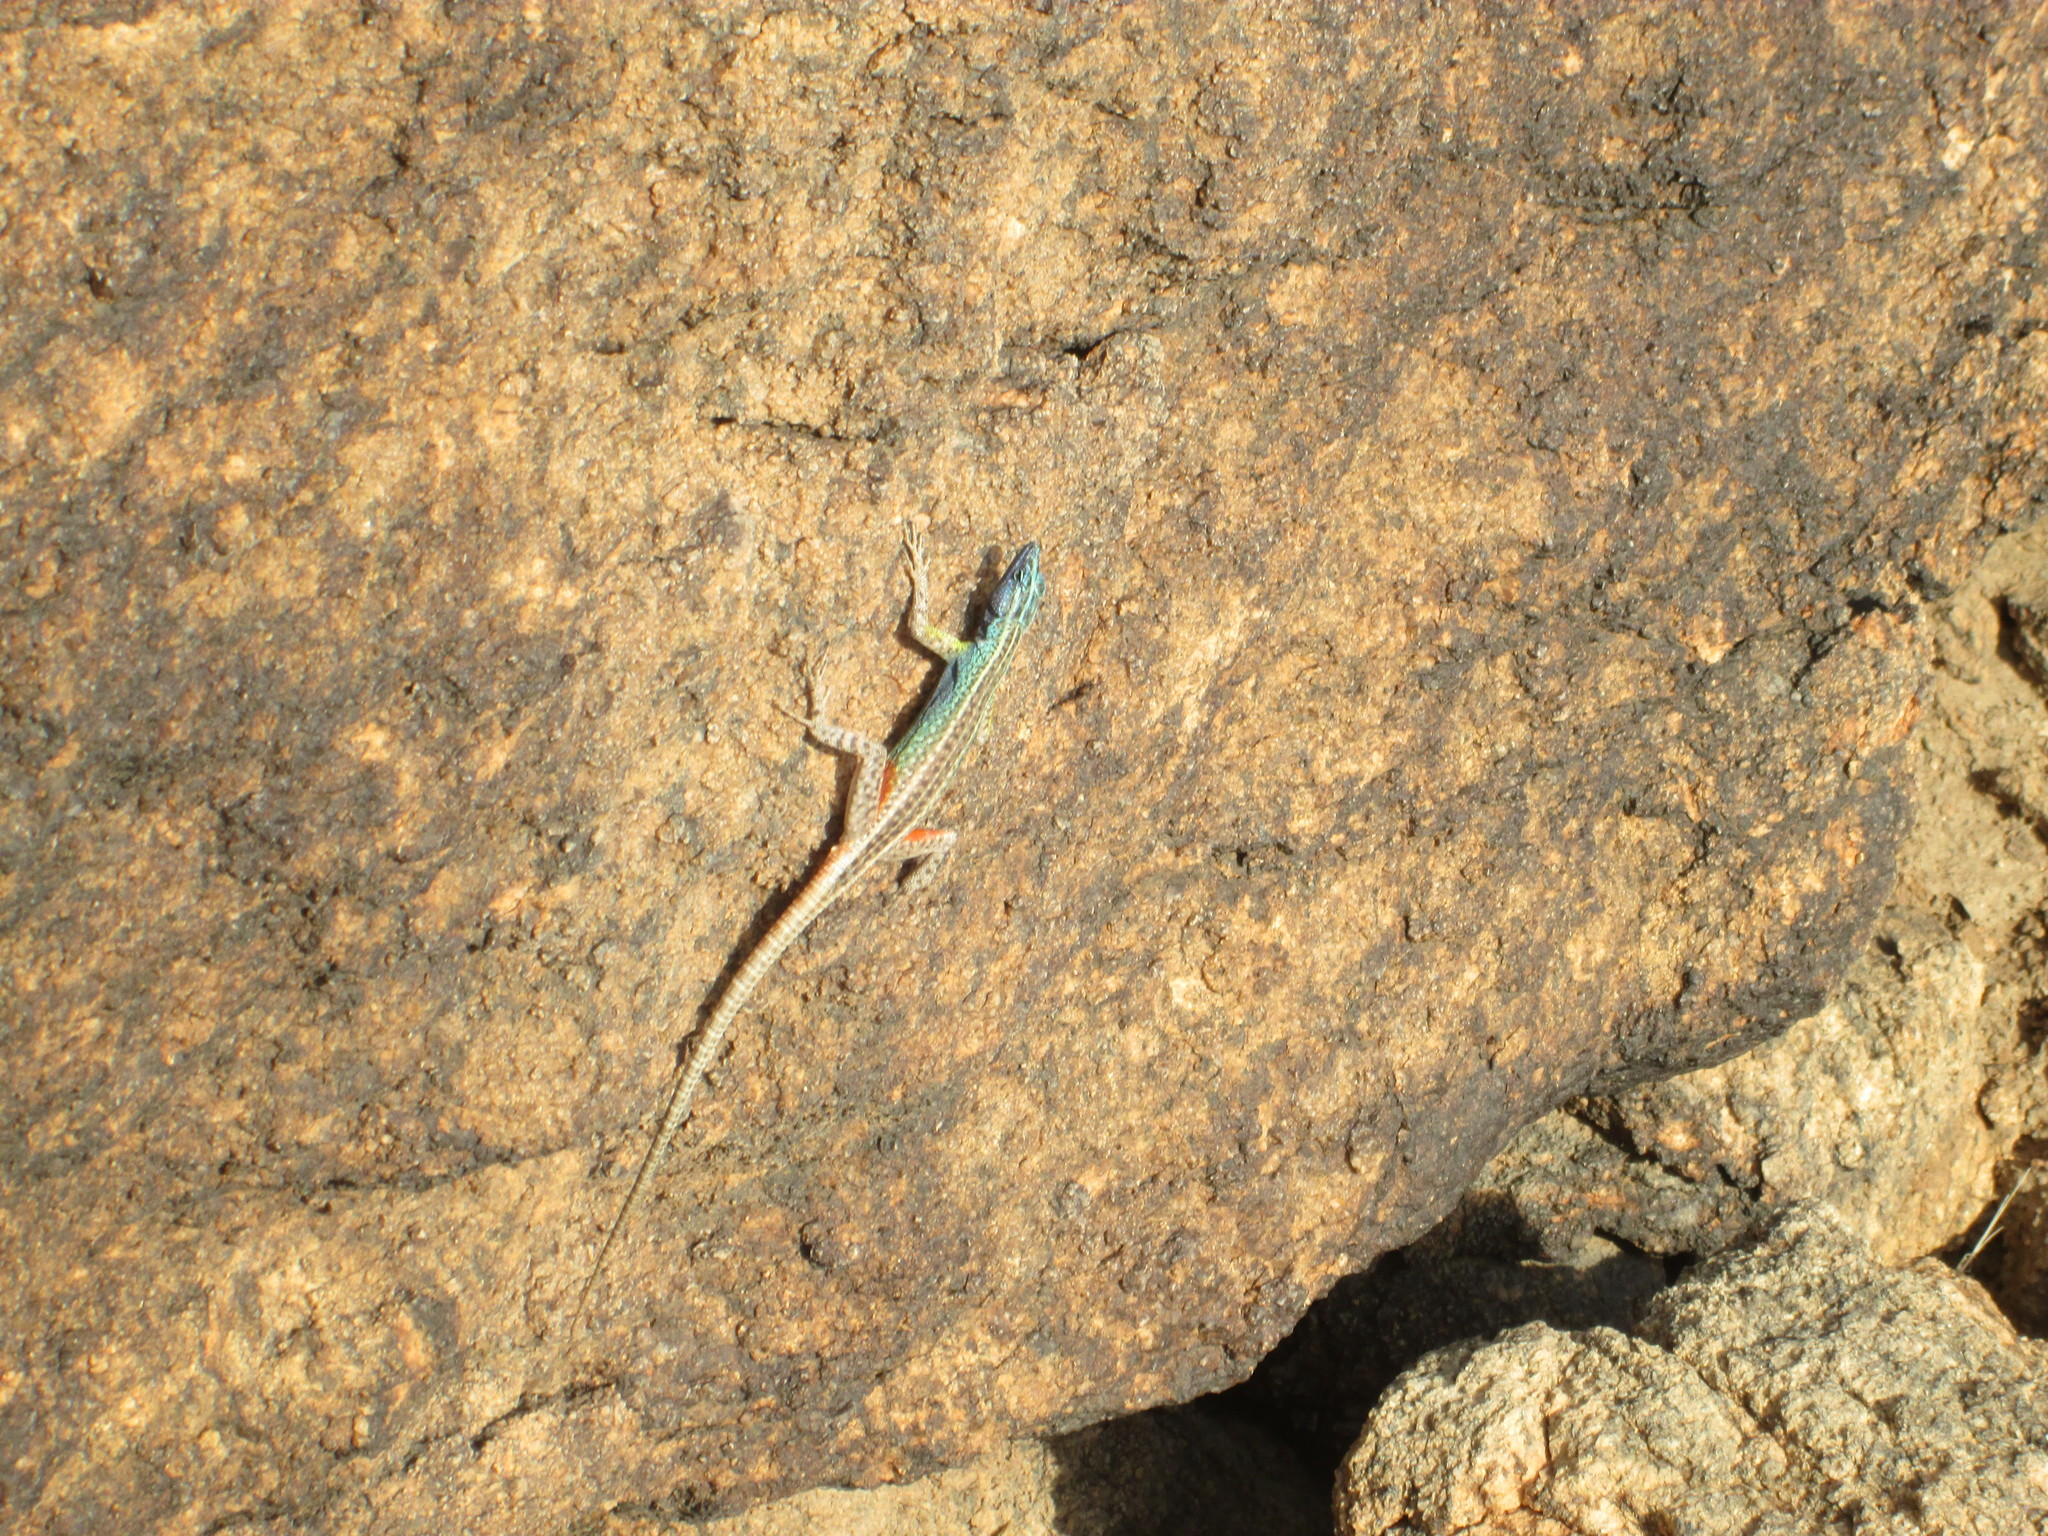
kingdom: Animalia
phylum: Chordata
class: Squamata
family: Cordylidae
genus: Platysaurus
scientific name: Platysaurus broadleyi
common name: Augrabies flat lizard
